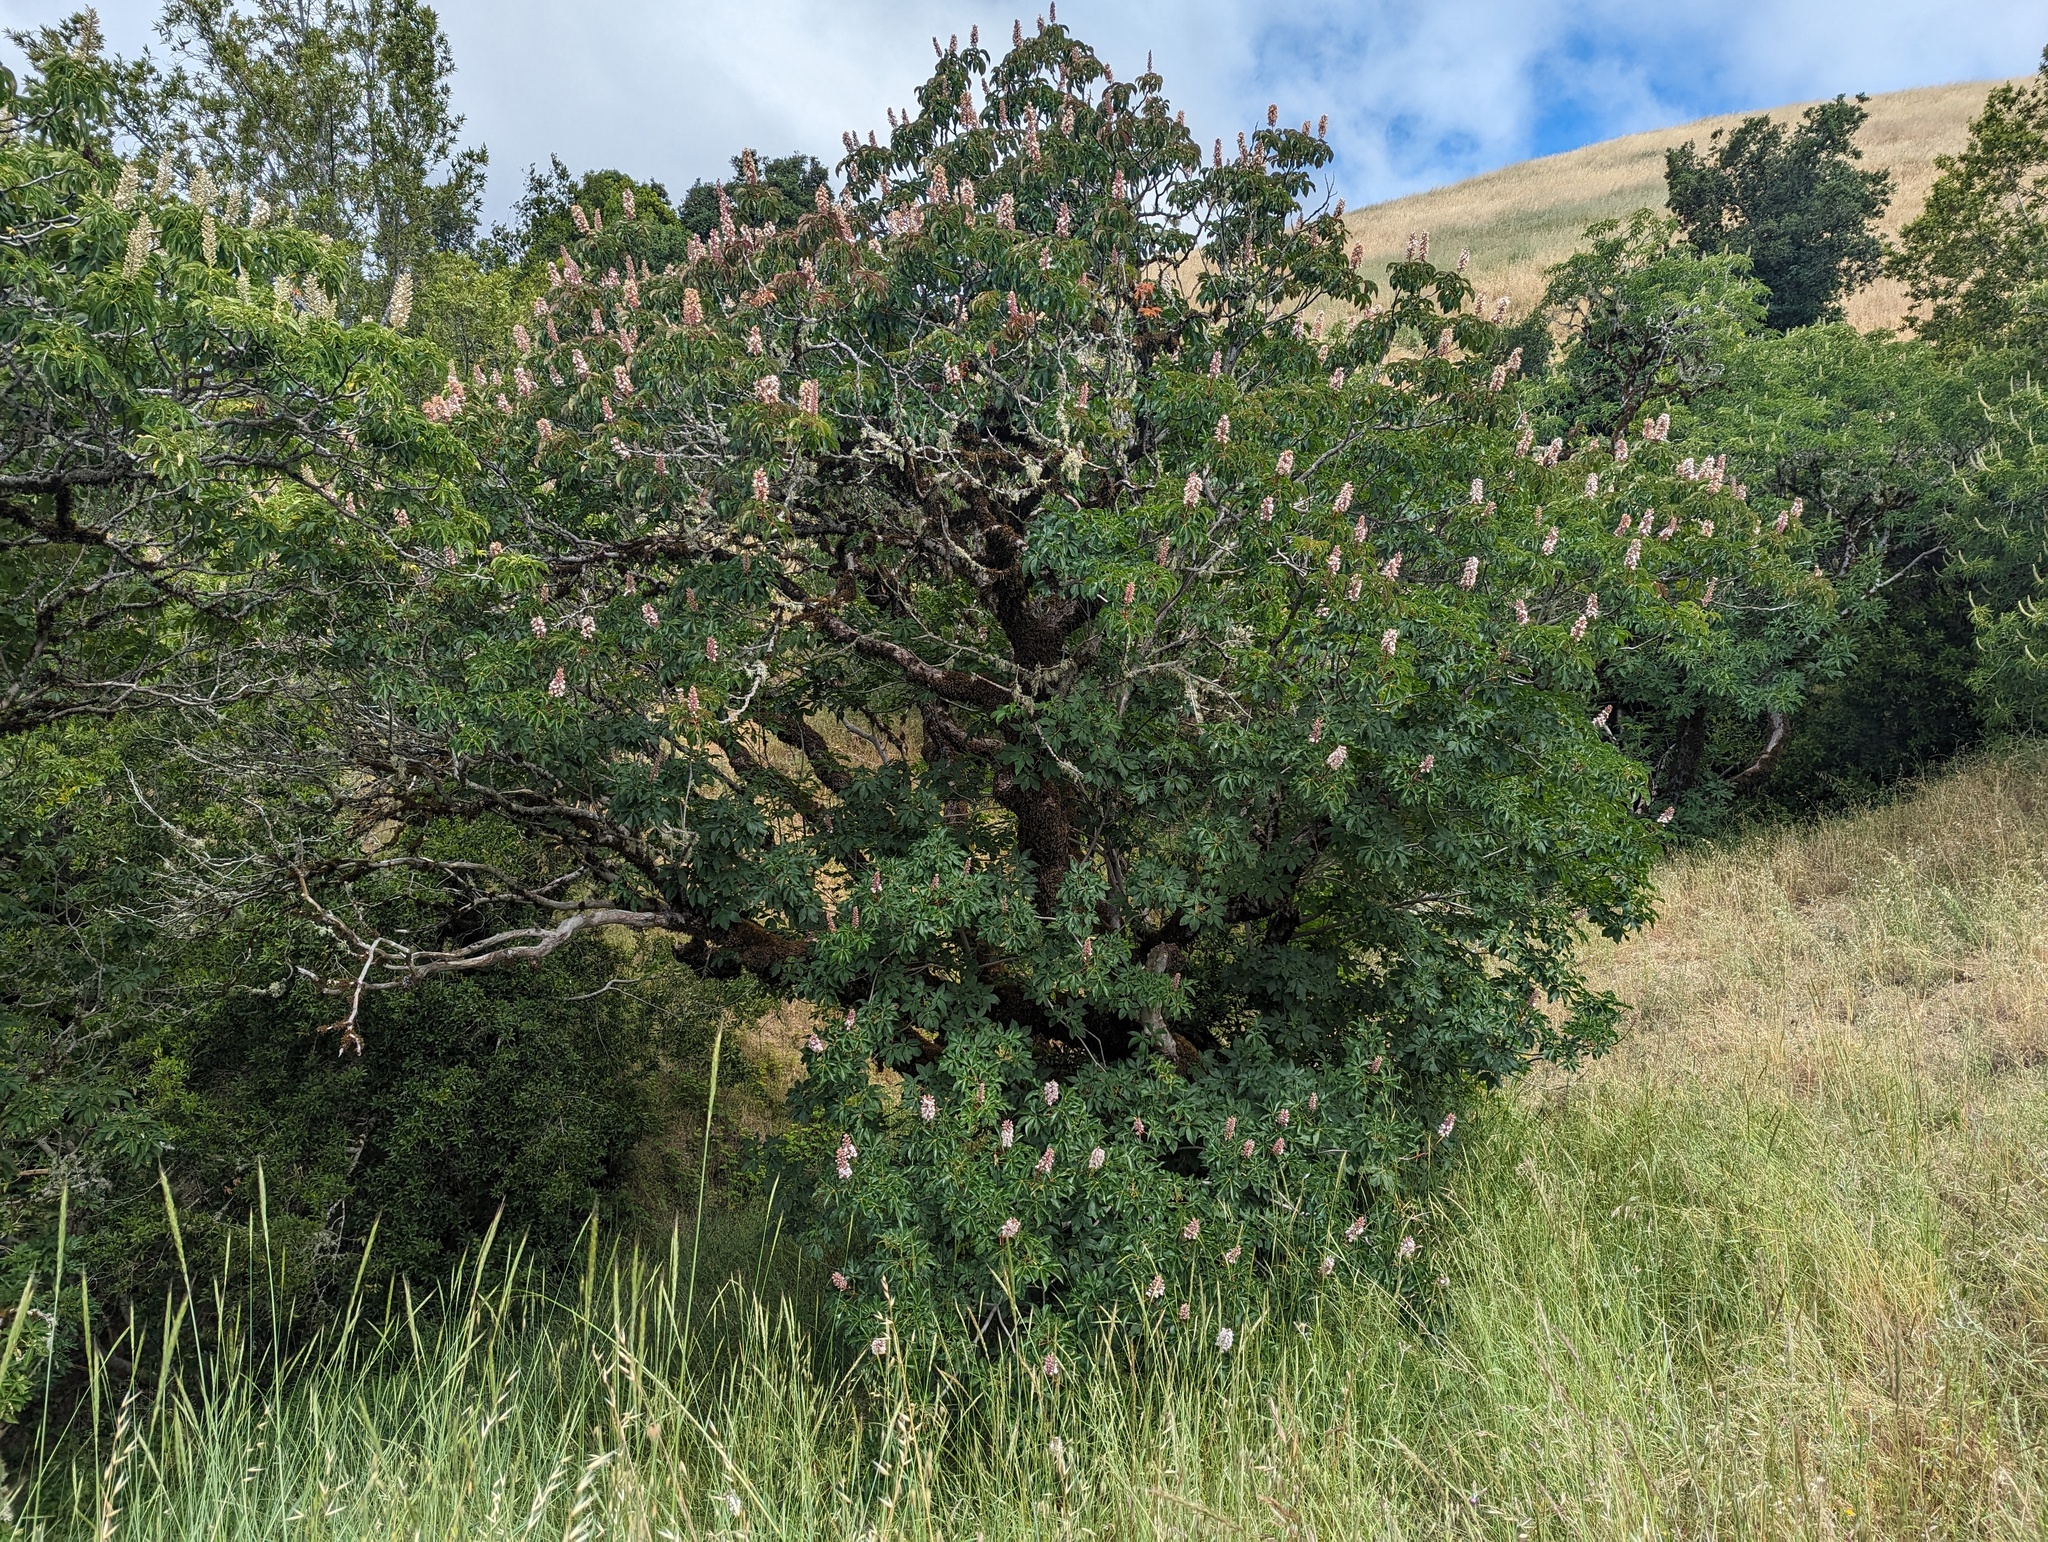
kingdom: Plantae
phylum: Tracheophyta
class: Magnoliopsida
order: Sapindales
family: Sapindaceae
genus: Aesculus
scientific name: Aesculus californica
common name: California buckeye
